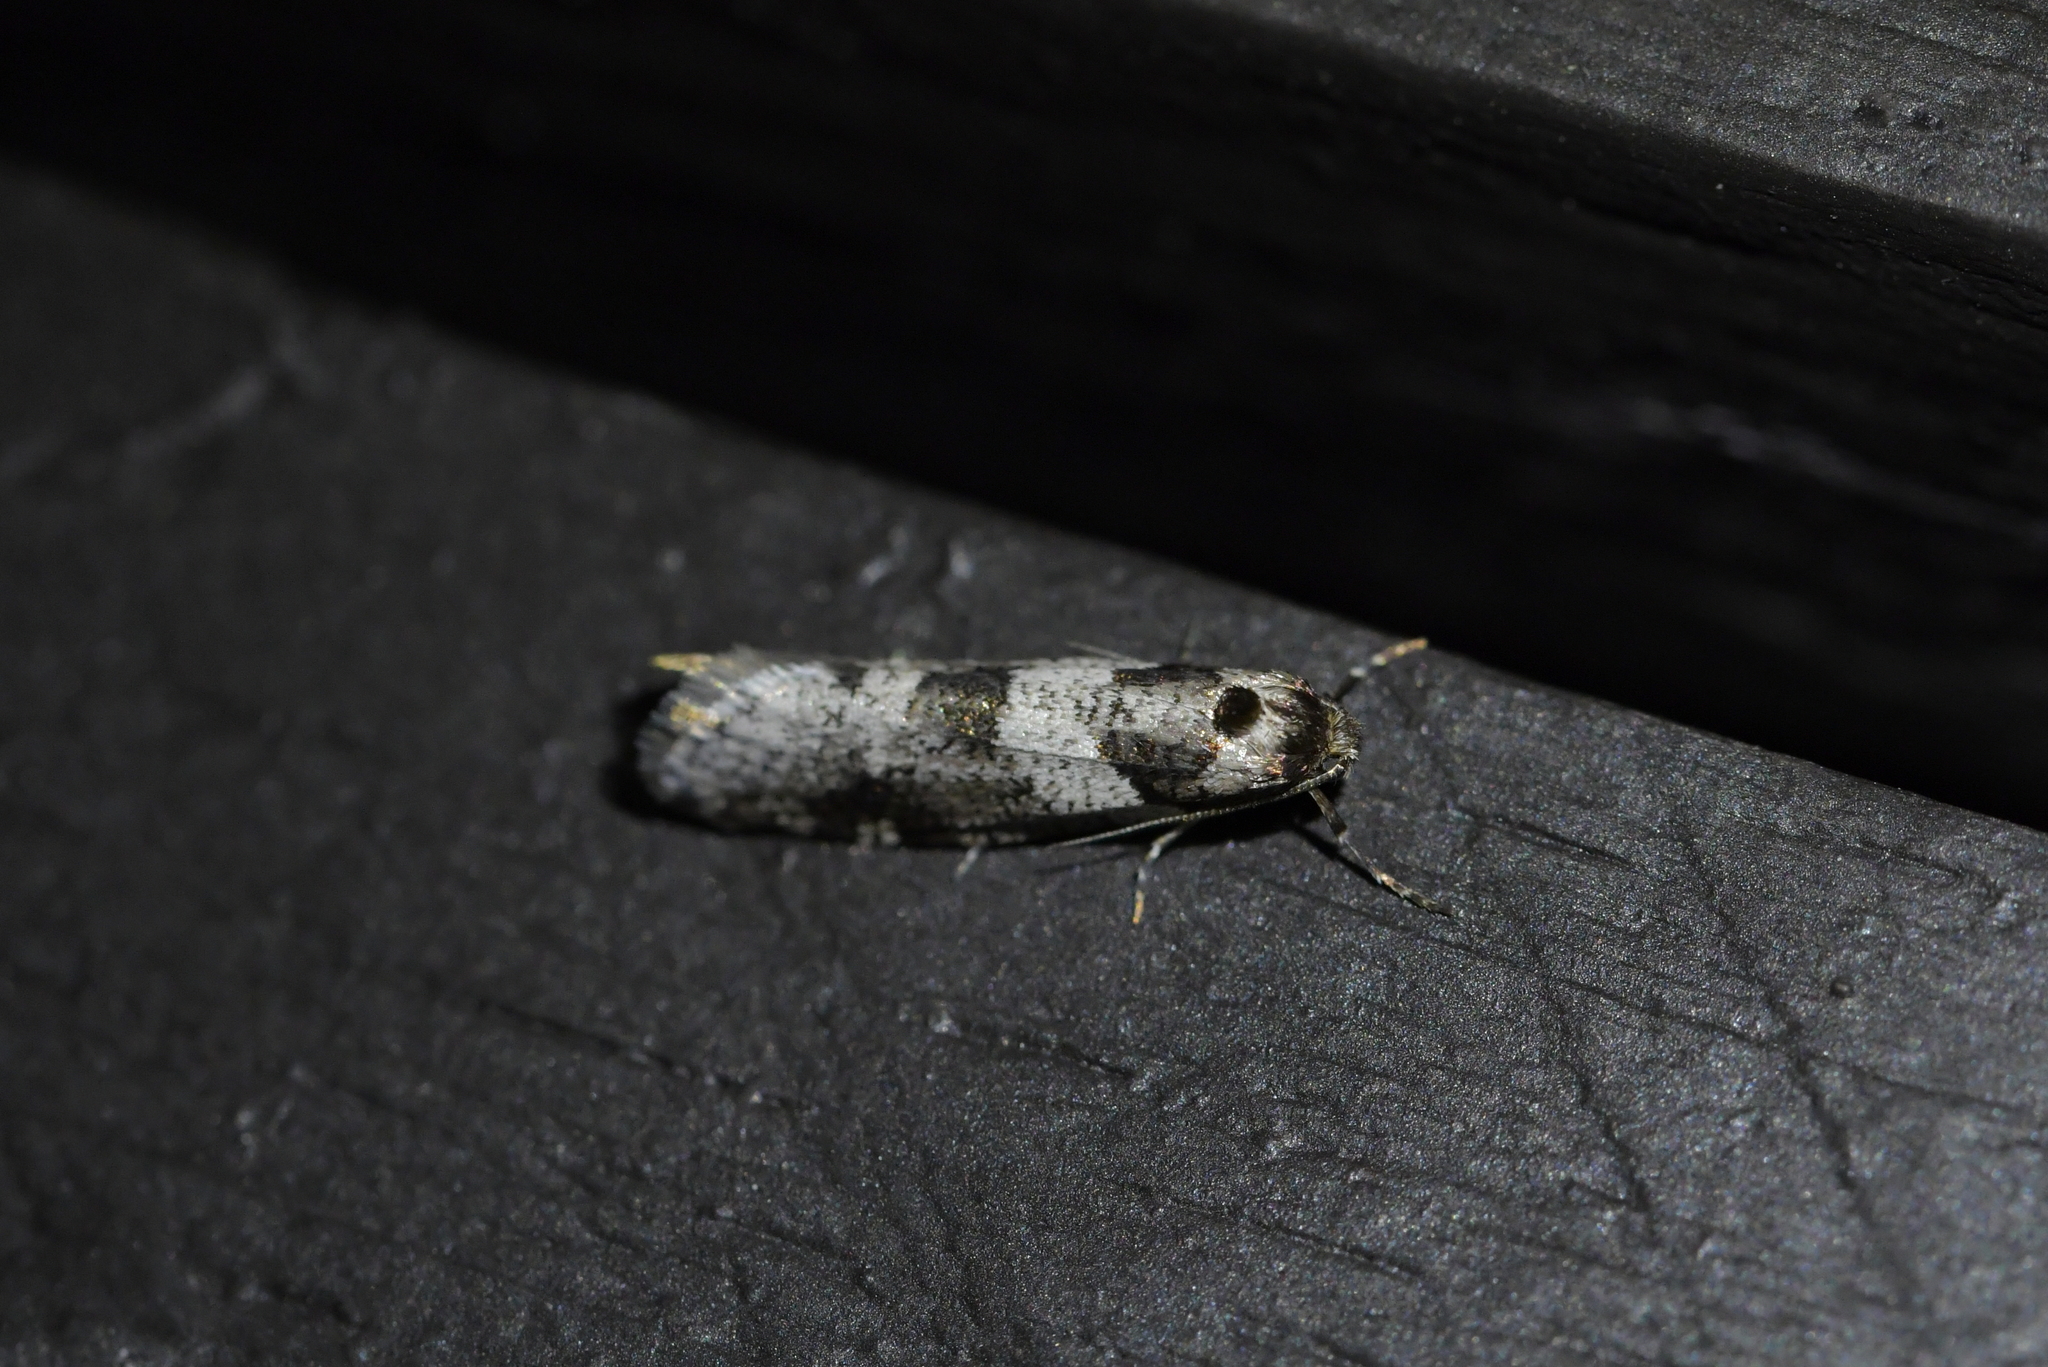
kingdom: Animalia
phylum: Arthropoda
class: Insecta
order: Lepidoptera
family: Psychidae
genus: Lepidoscia
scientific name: Lepidoscia heliochares
